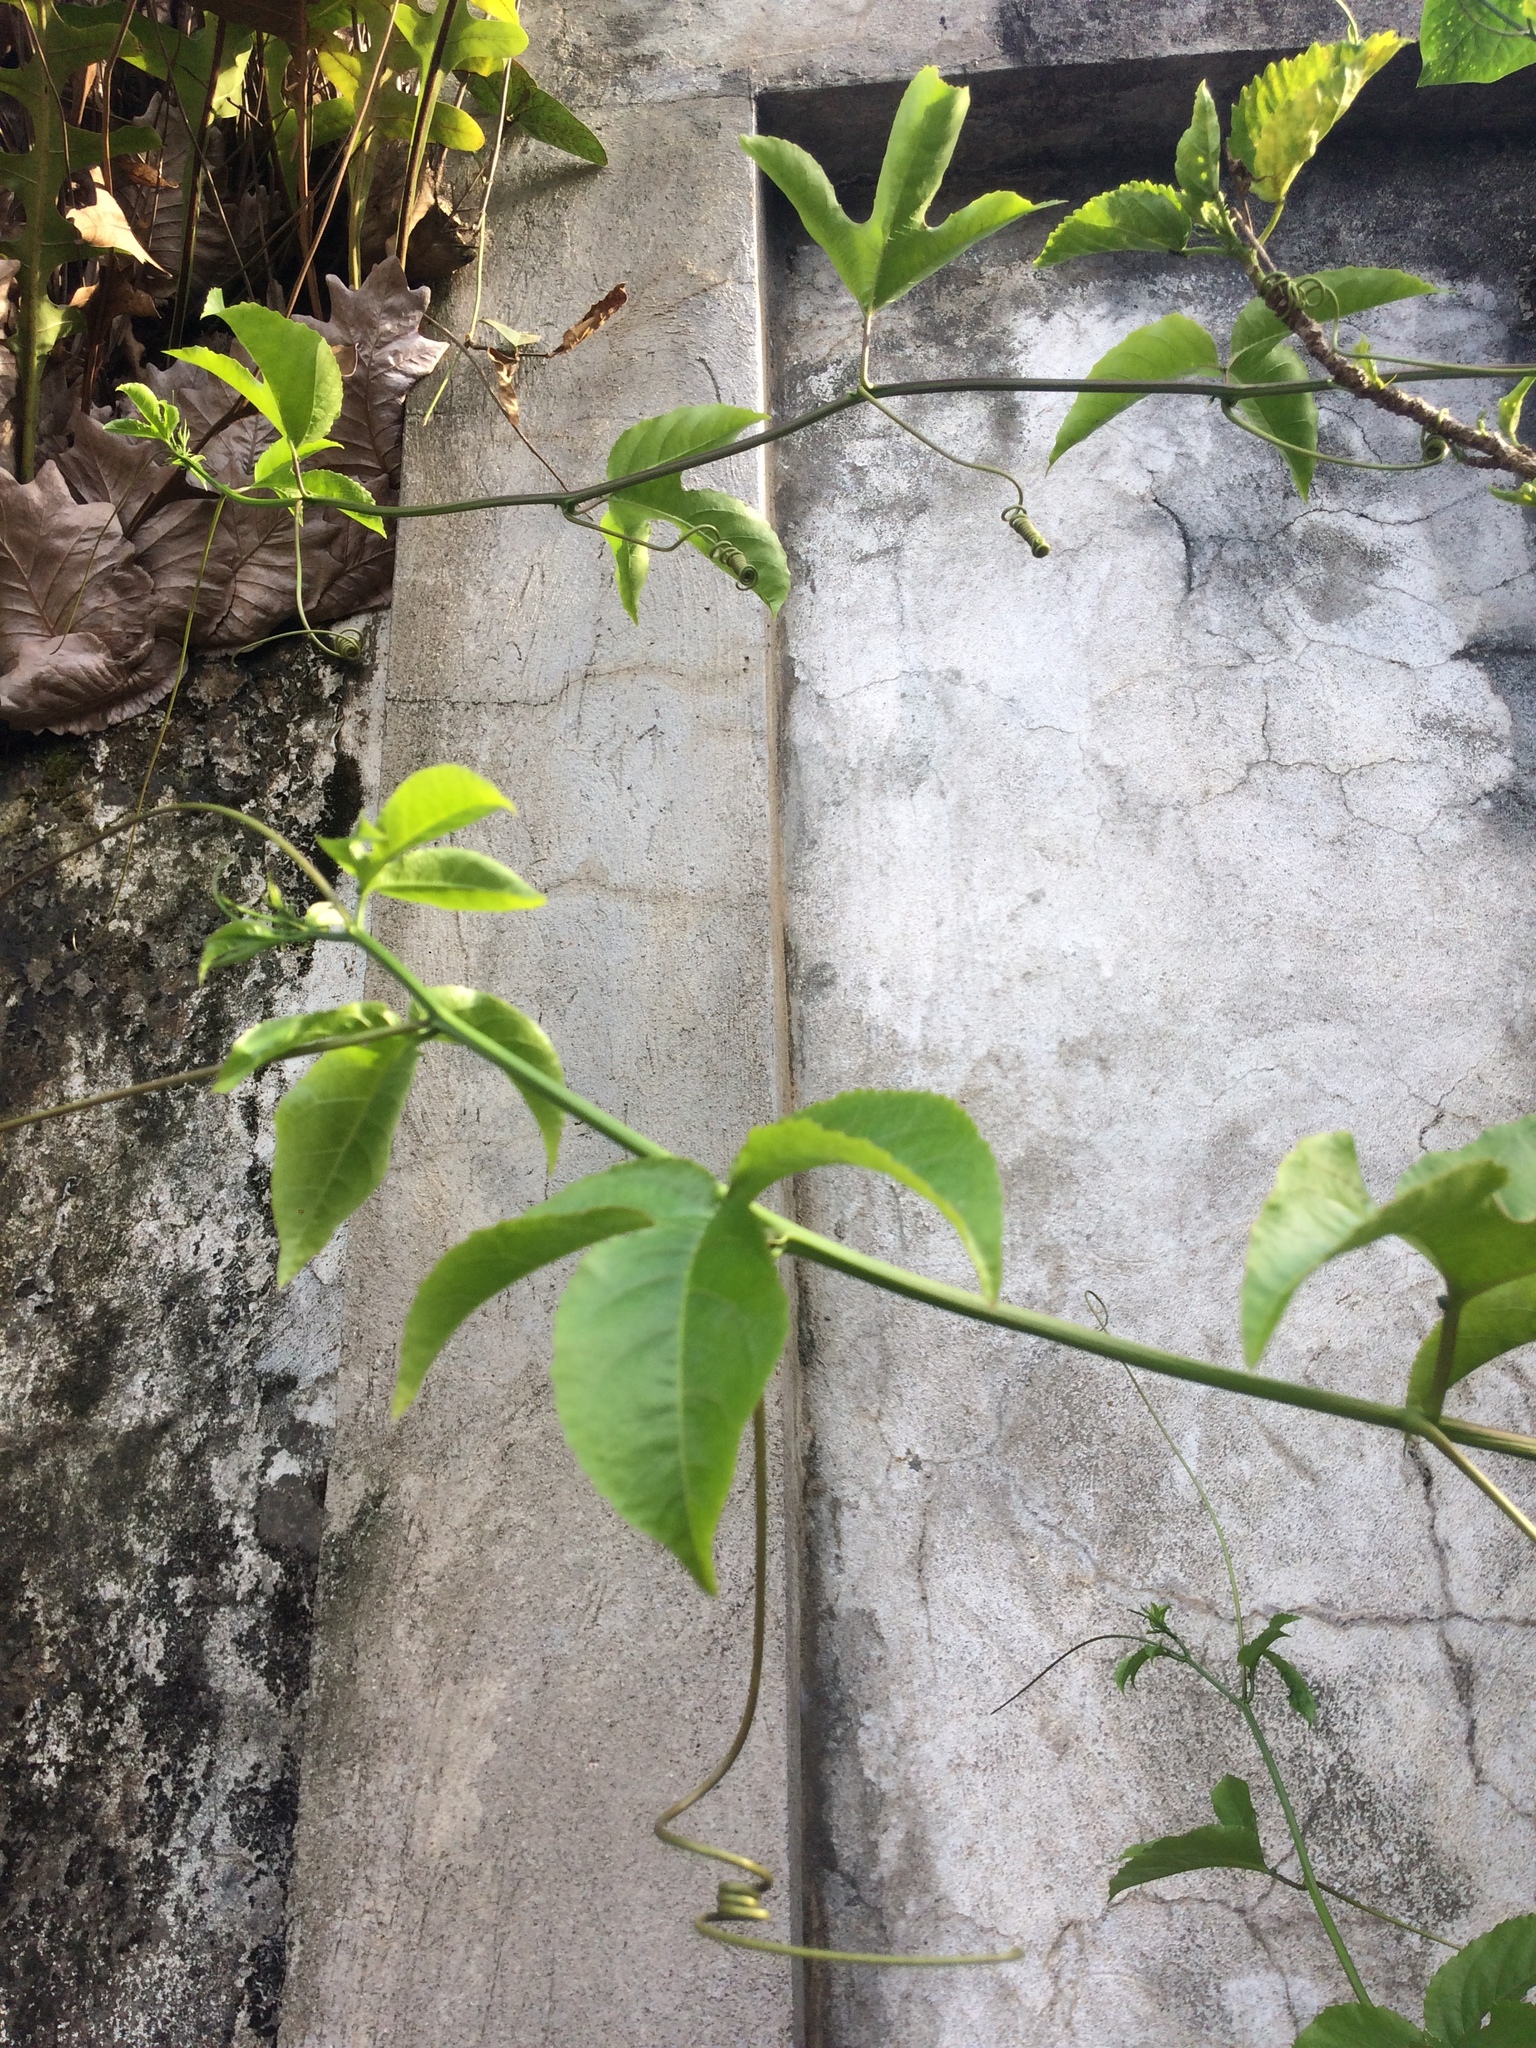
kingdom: Plantae
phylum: Tracheophyta
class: Magnoliopsida
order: Malpighiales
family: Passifloraceae
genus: Passiflora
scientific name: Passiflora edulis
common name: Purple granadilla
